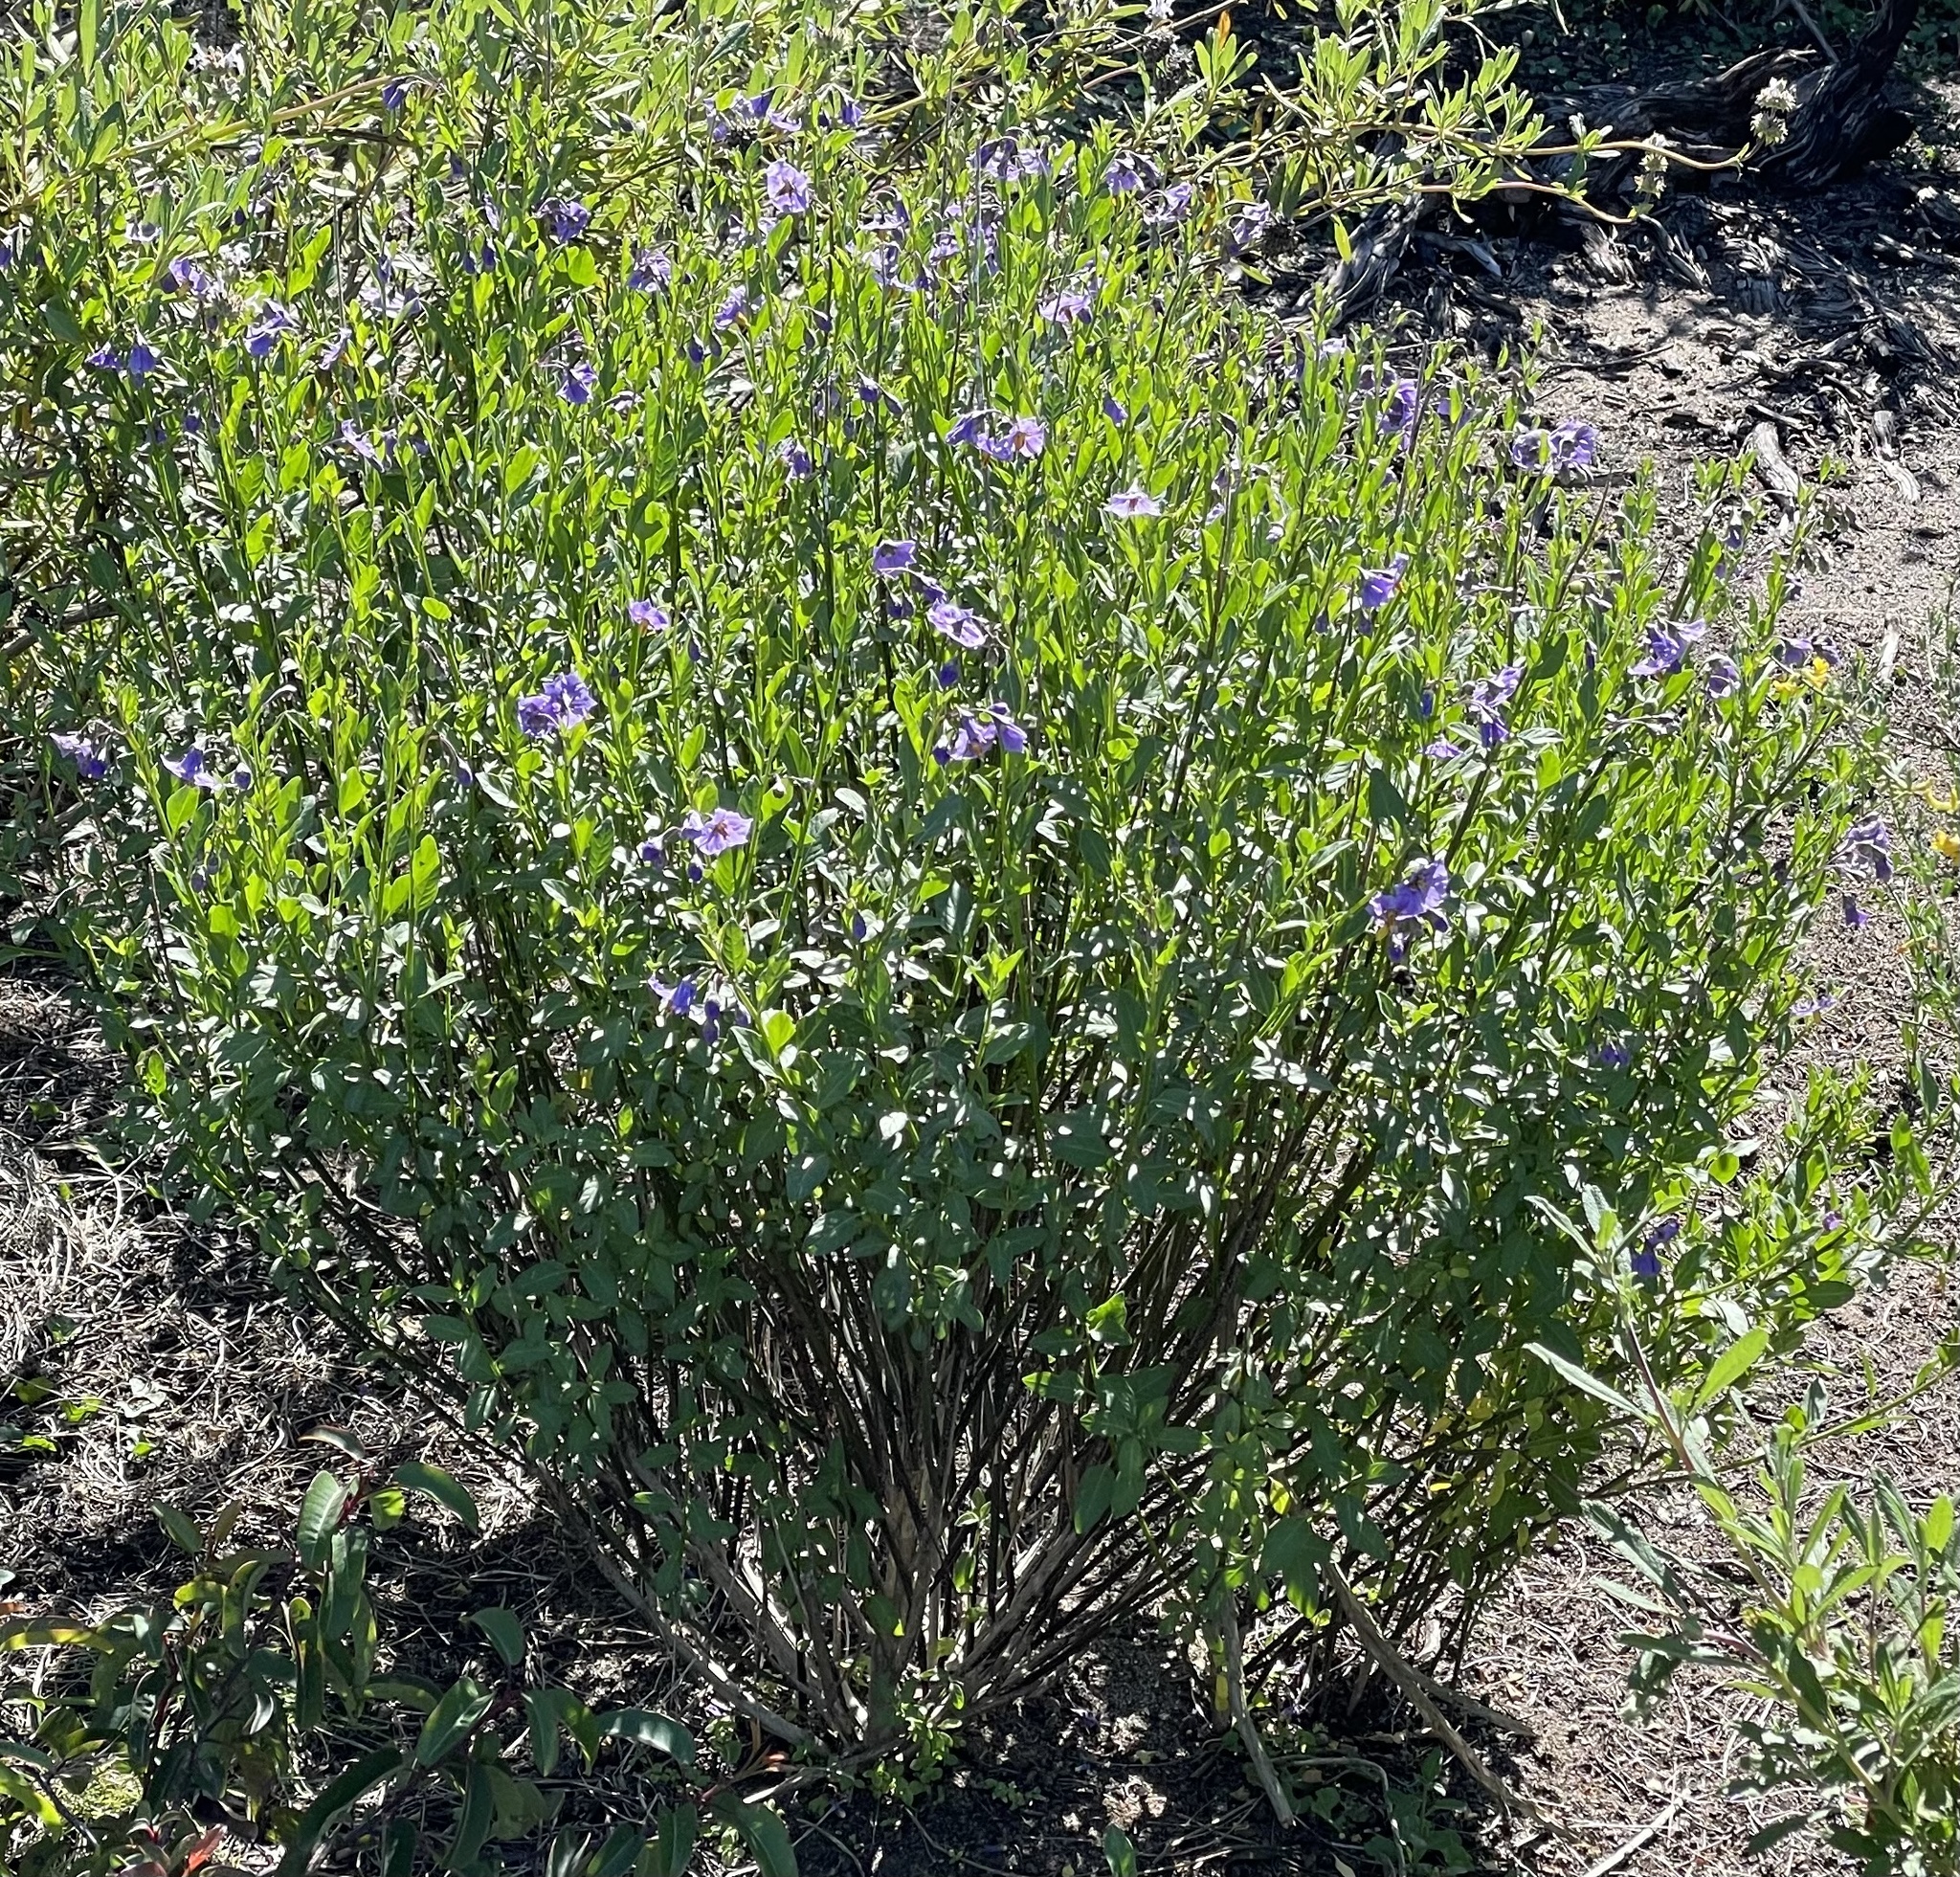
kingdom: Plantae
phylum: Tracheophyta
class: Magnoliopsida
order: Solanales
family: Solanaceae
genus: Solanum
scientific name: Solanum umbelliferum
